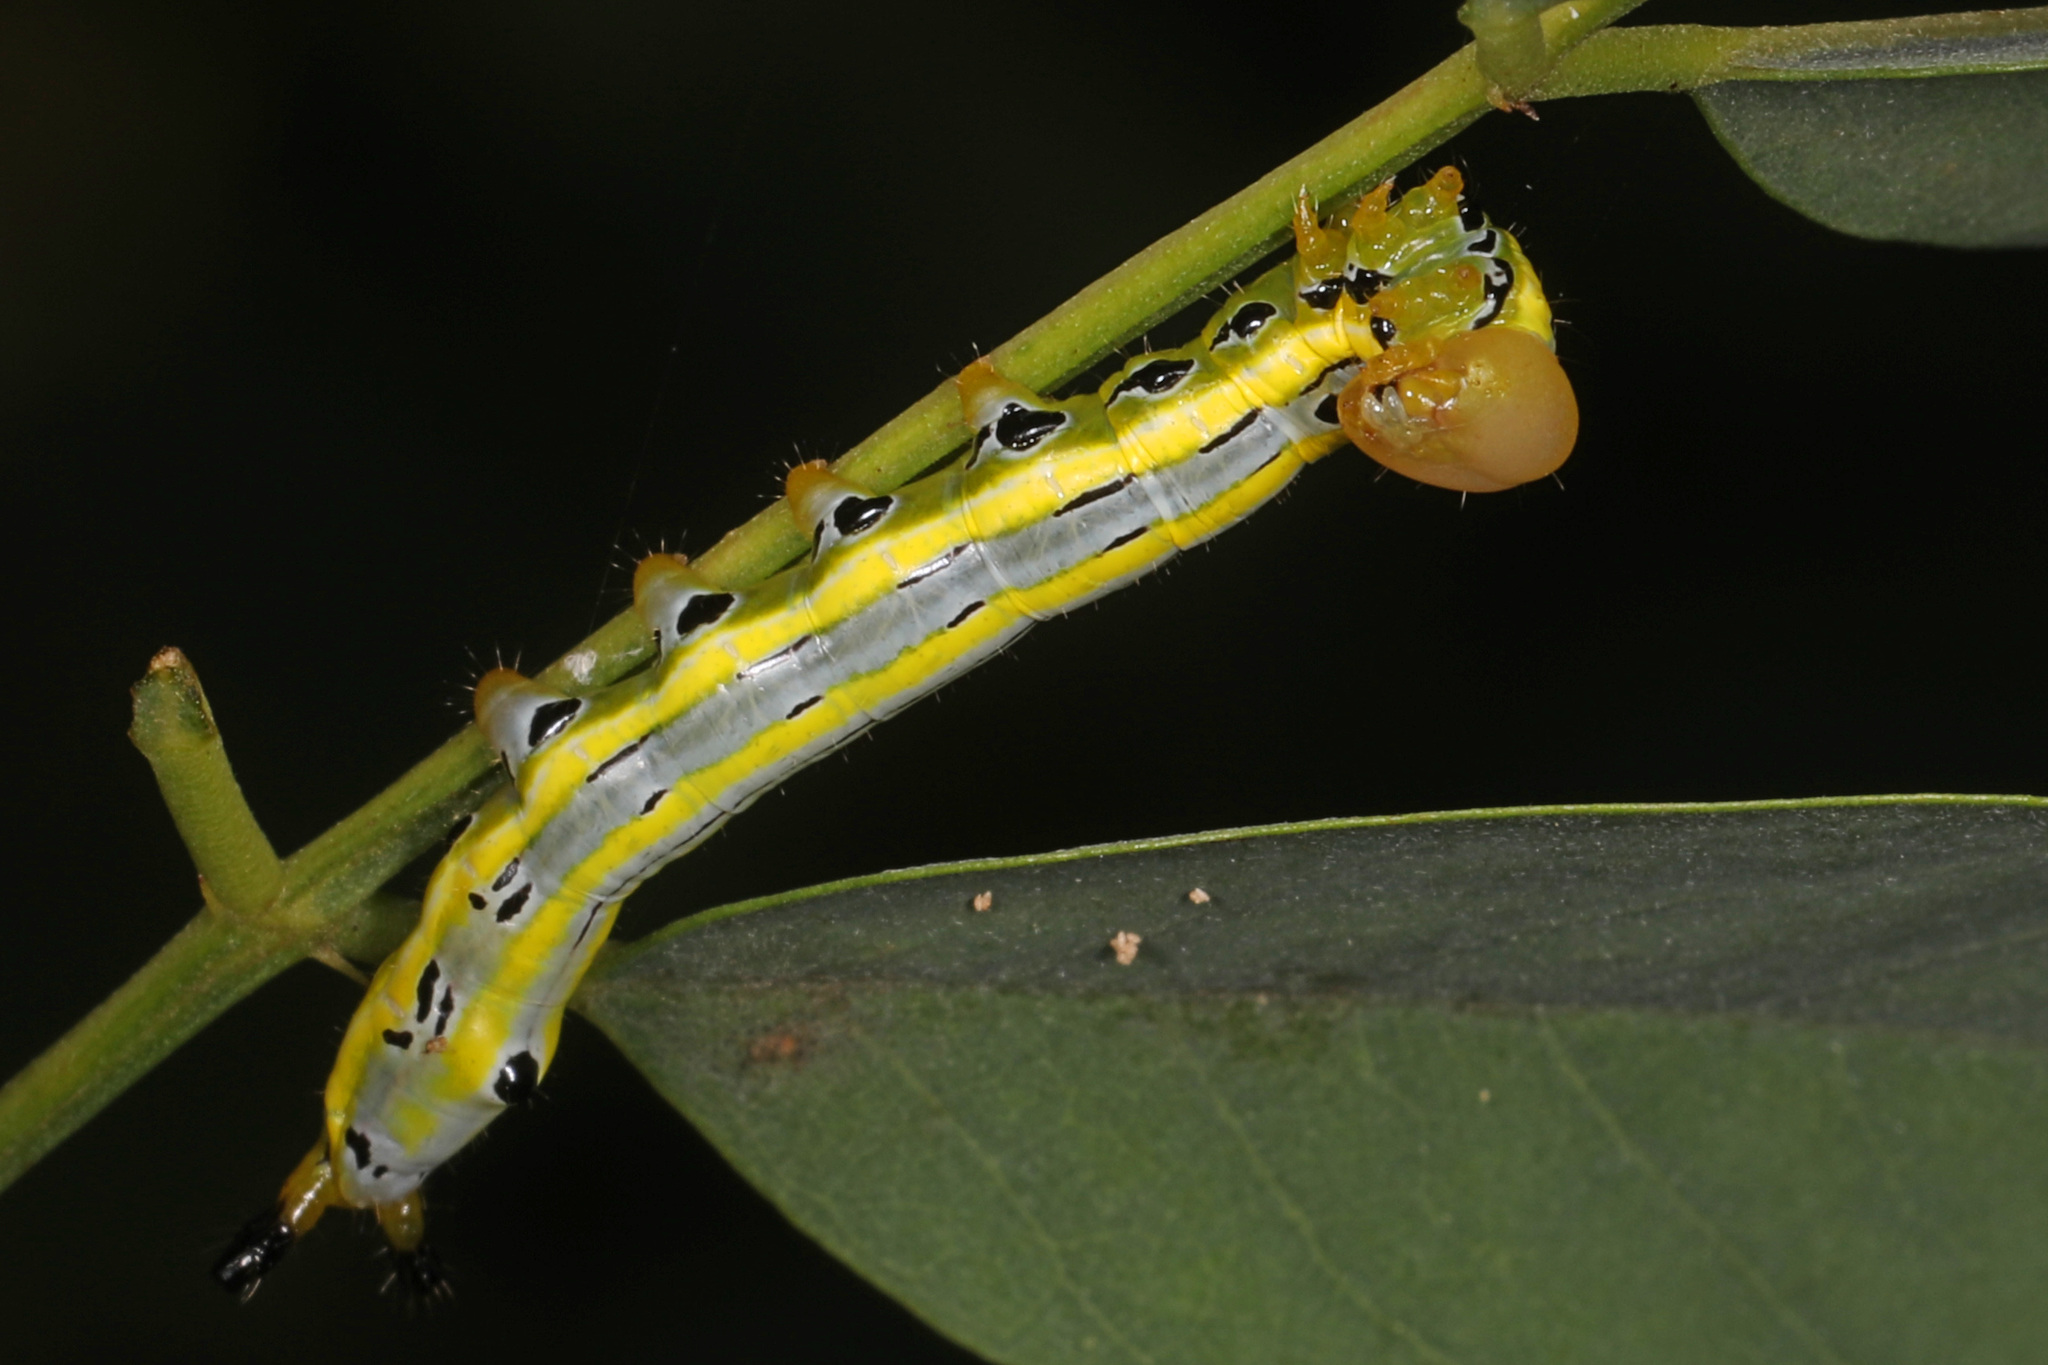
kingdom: Animalia
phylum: Arthropoda
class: Insecta
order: Lepidoptera
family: Notodontidae
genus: Dasylophia
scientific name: Dasylophia anguina
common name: Black-spotted prominent
